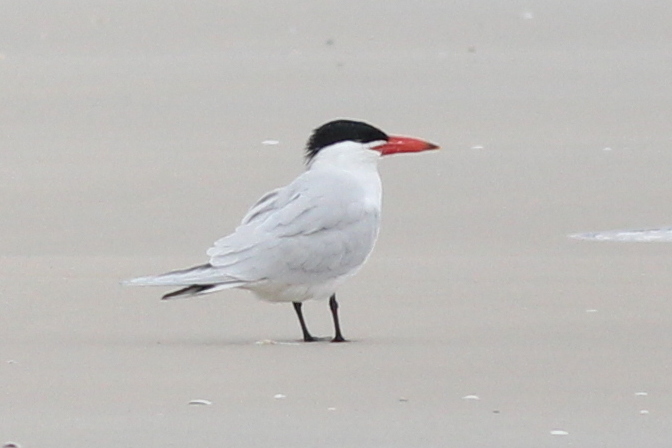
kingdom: Animalia
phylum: Chordata
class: Aves
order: Charadriiformes
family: Laridae
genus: Hydroprogne
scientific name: Hydroprogne caspia
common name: Caspian tern
